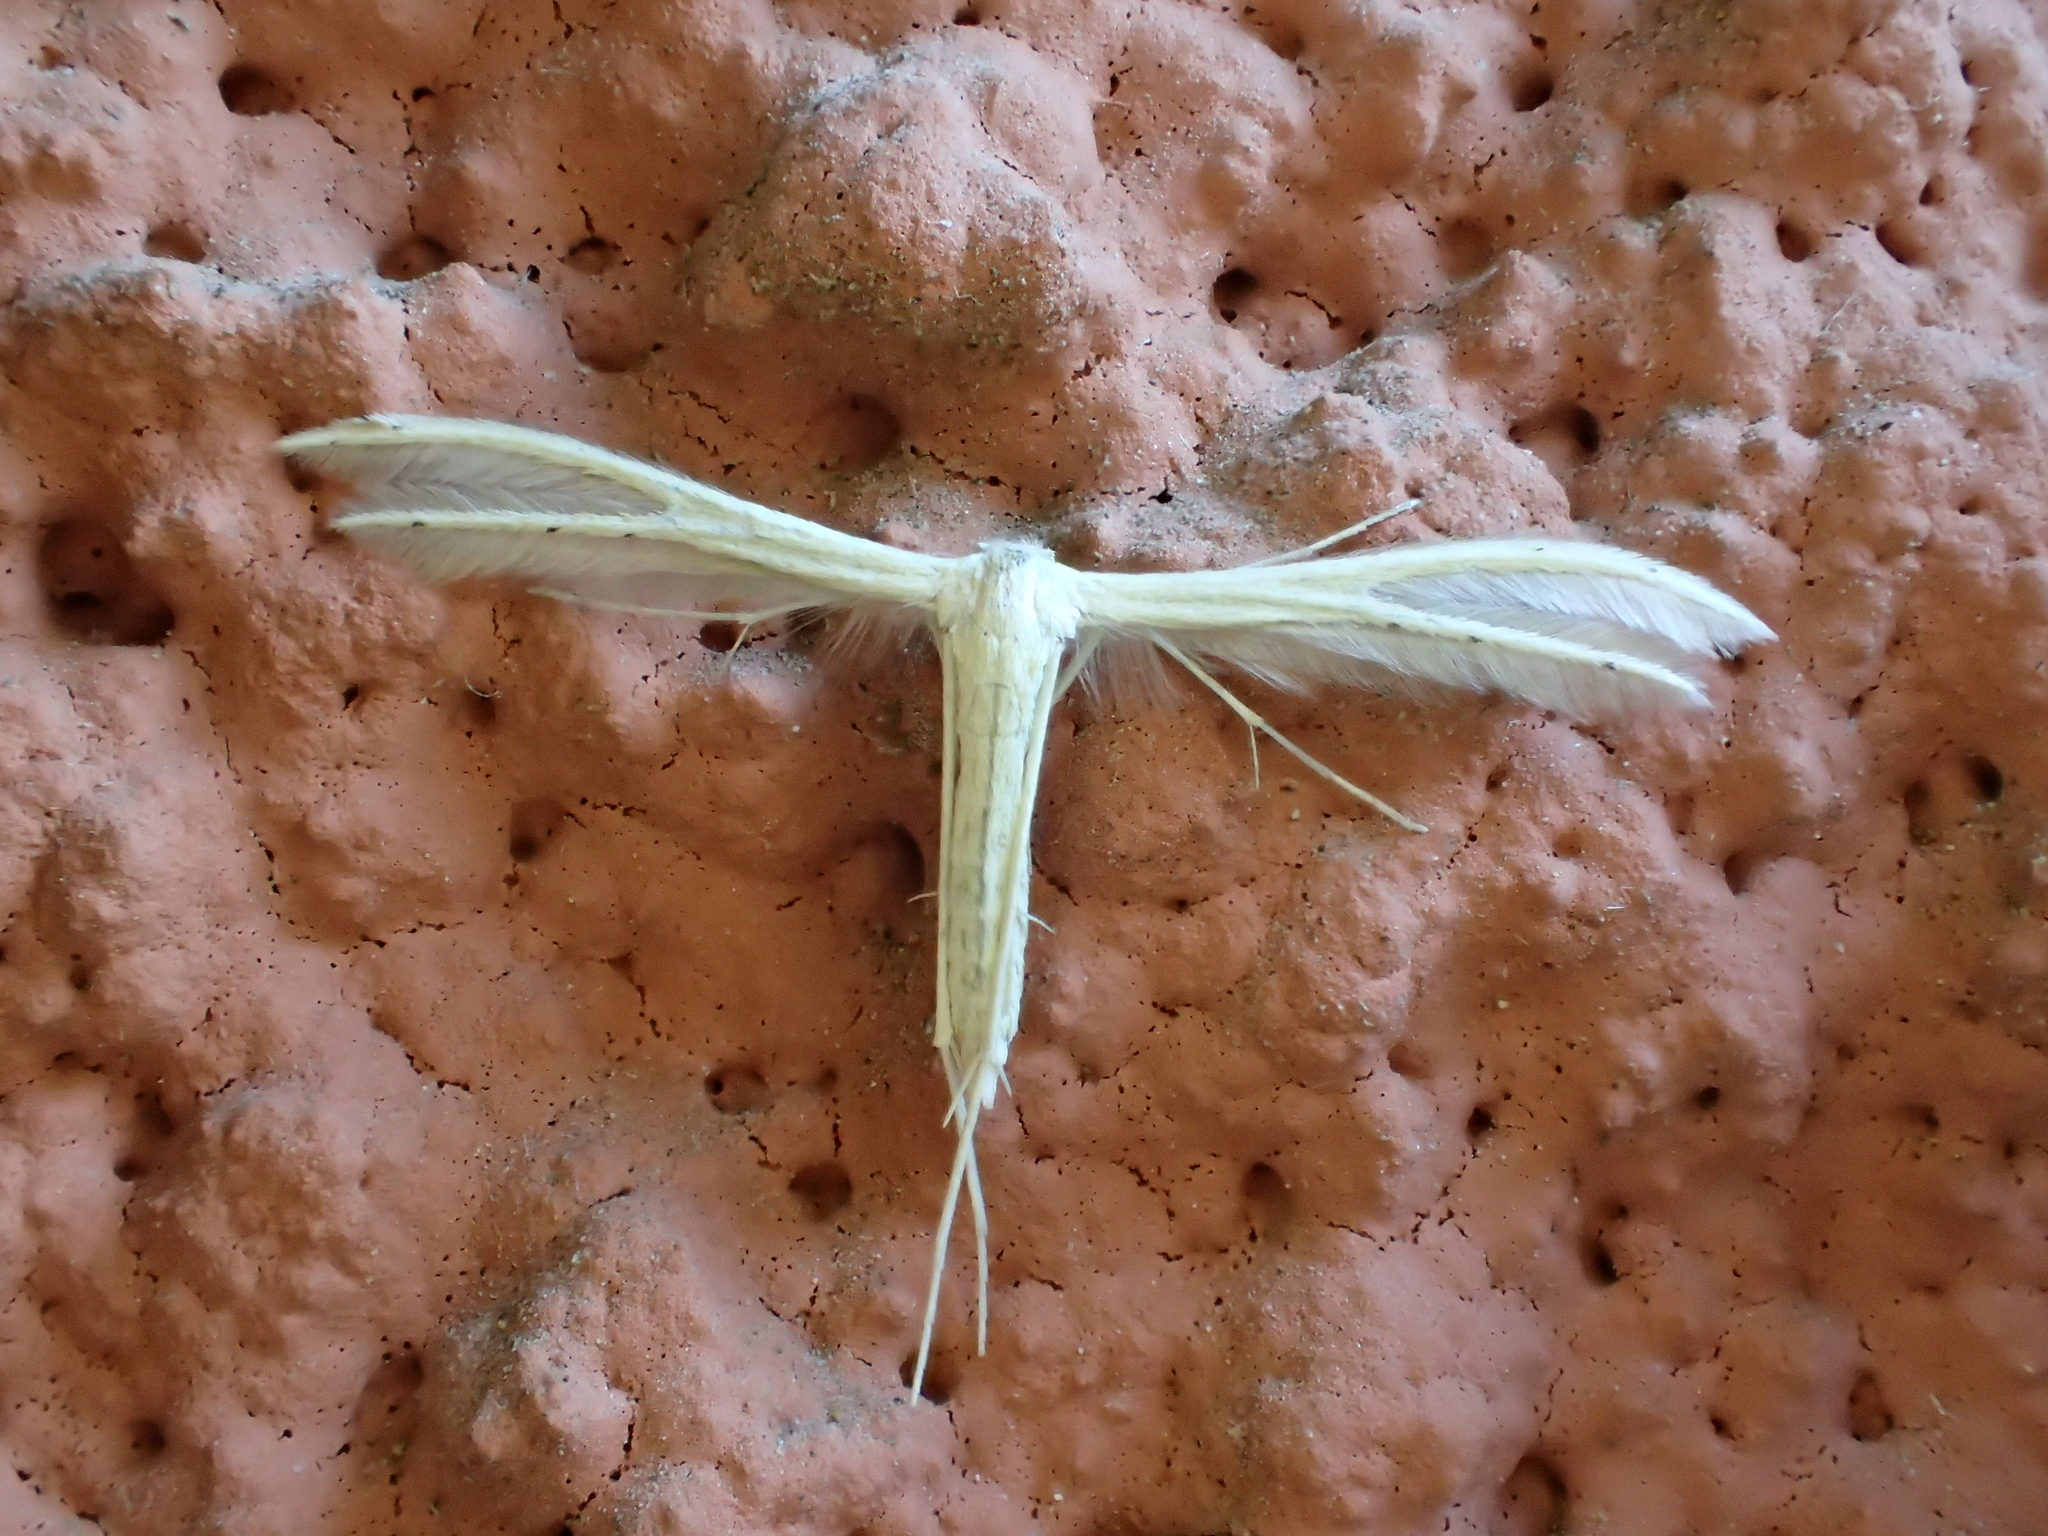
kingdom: Animalia
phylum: Arthropoda
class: Insecta
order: Lepidoptera
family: Pterophoridae
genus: Pterophorus
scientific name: Pterophorus pentadactyla
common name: White plume moth
